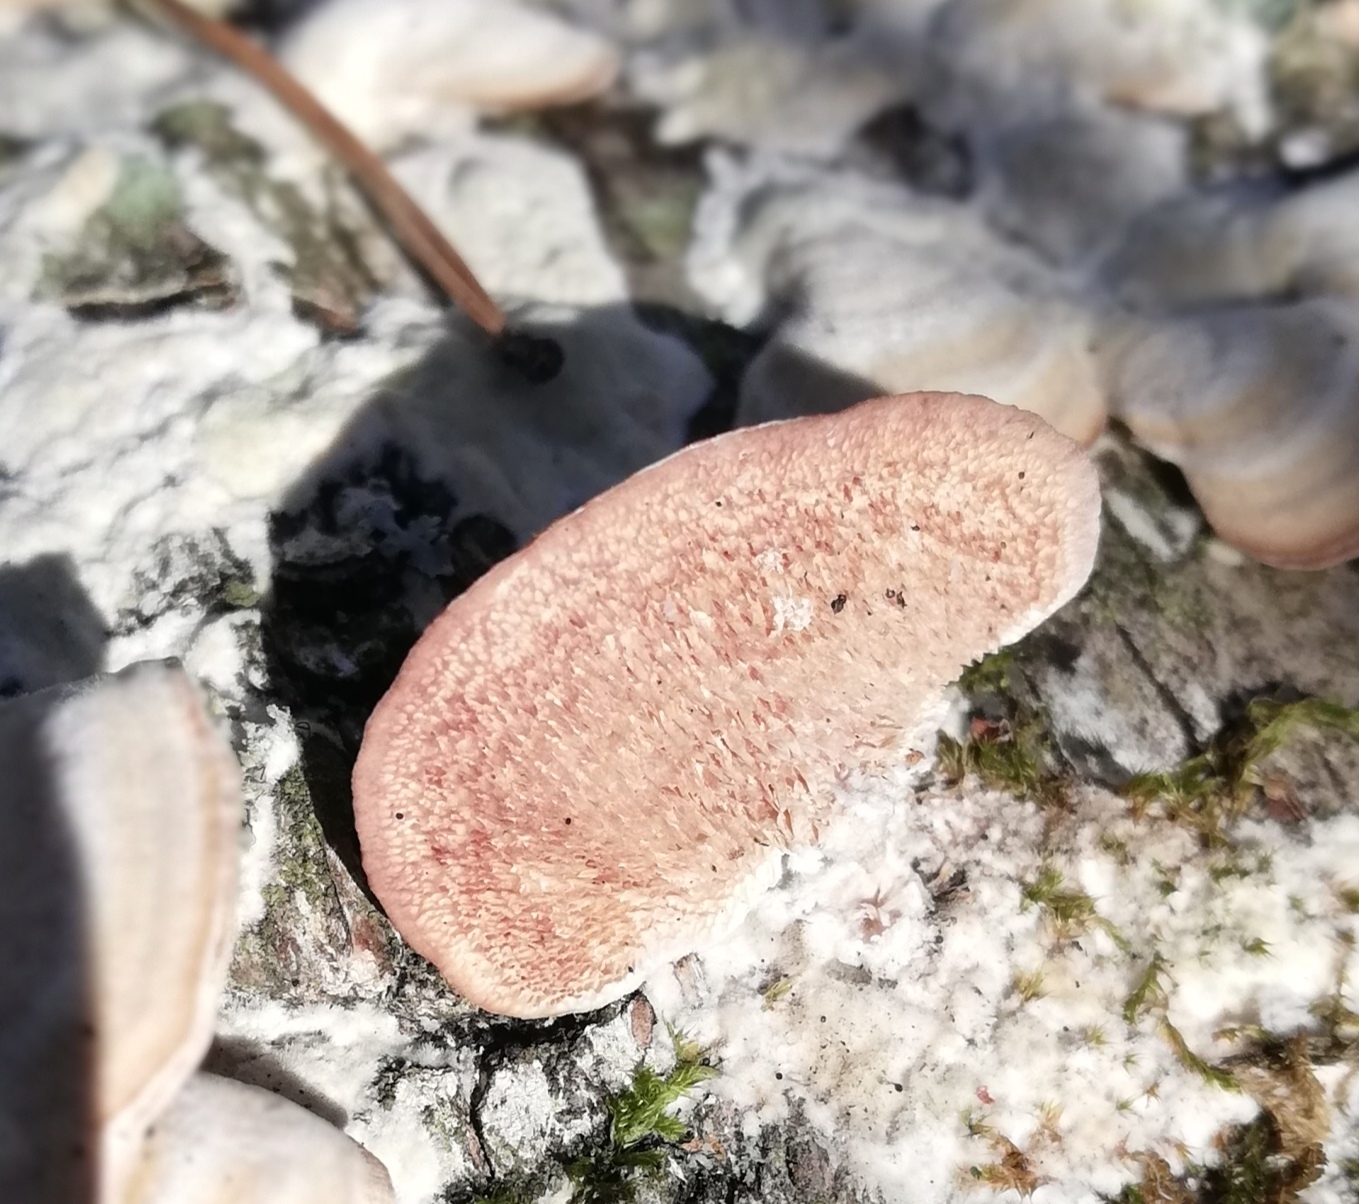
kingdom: Fungi
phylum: Basidiomycota
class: Agaricomycetes
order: Hymenochaetales
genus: Trichaptum
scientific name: Trichaptum biforme
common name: Violet-toothed polypore
